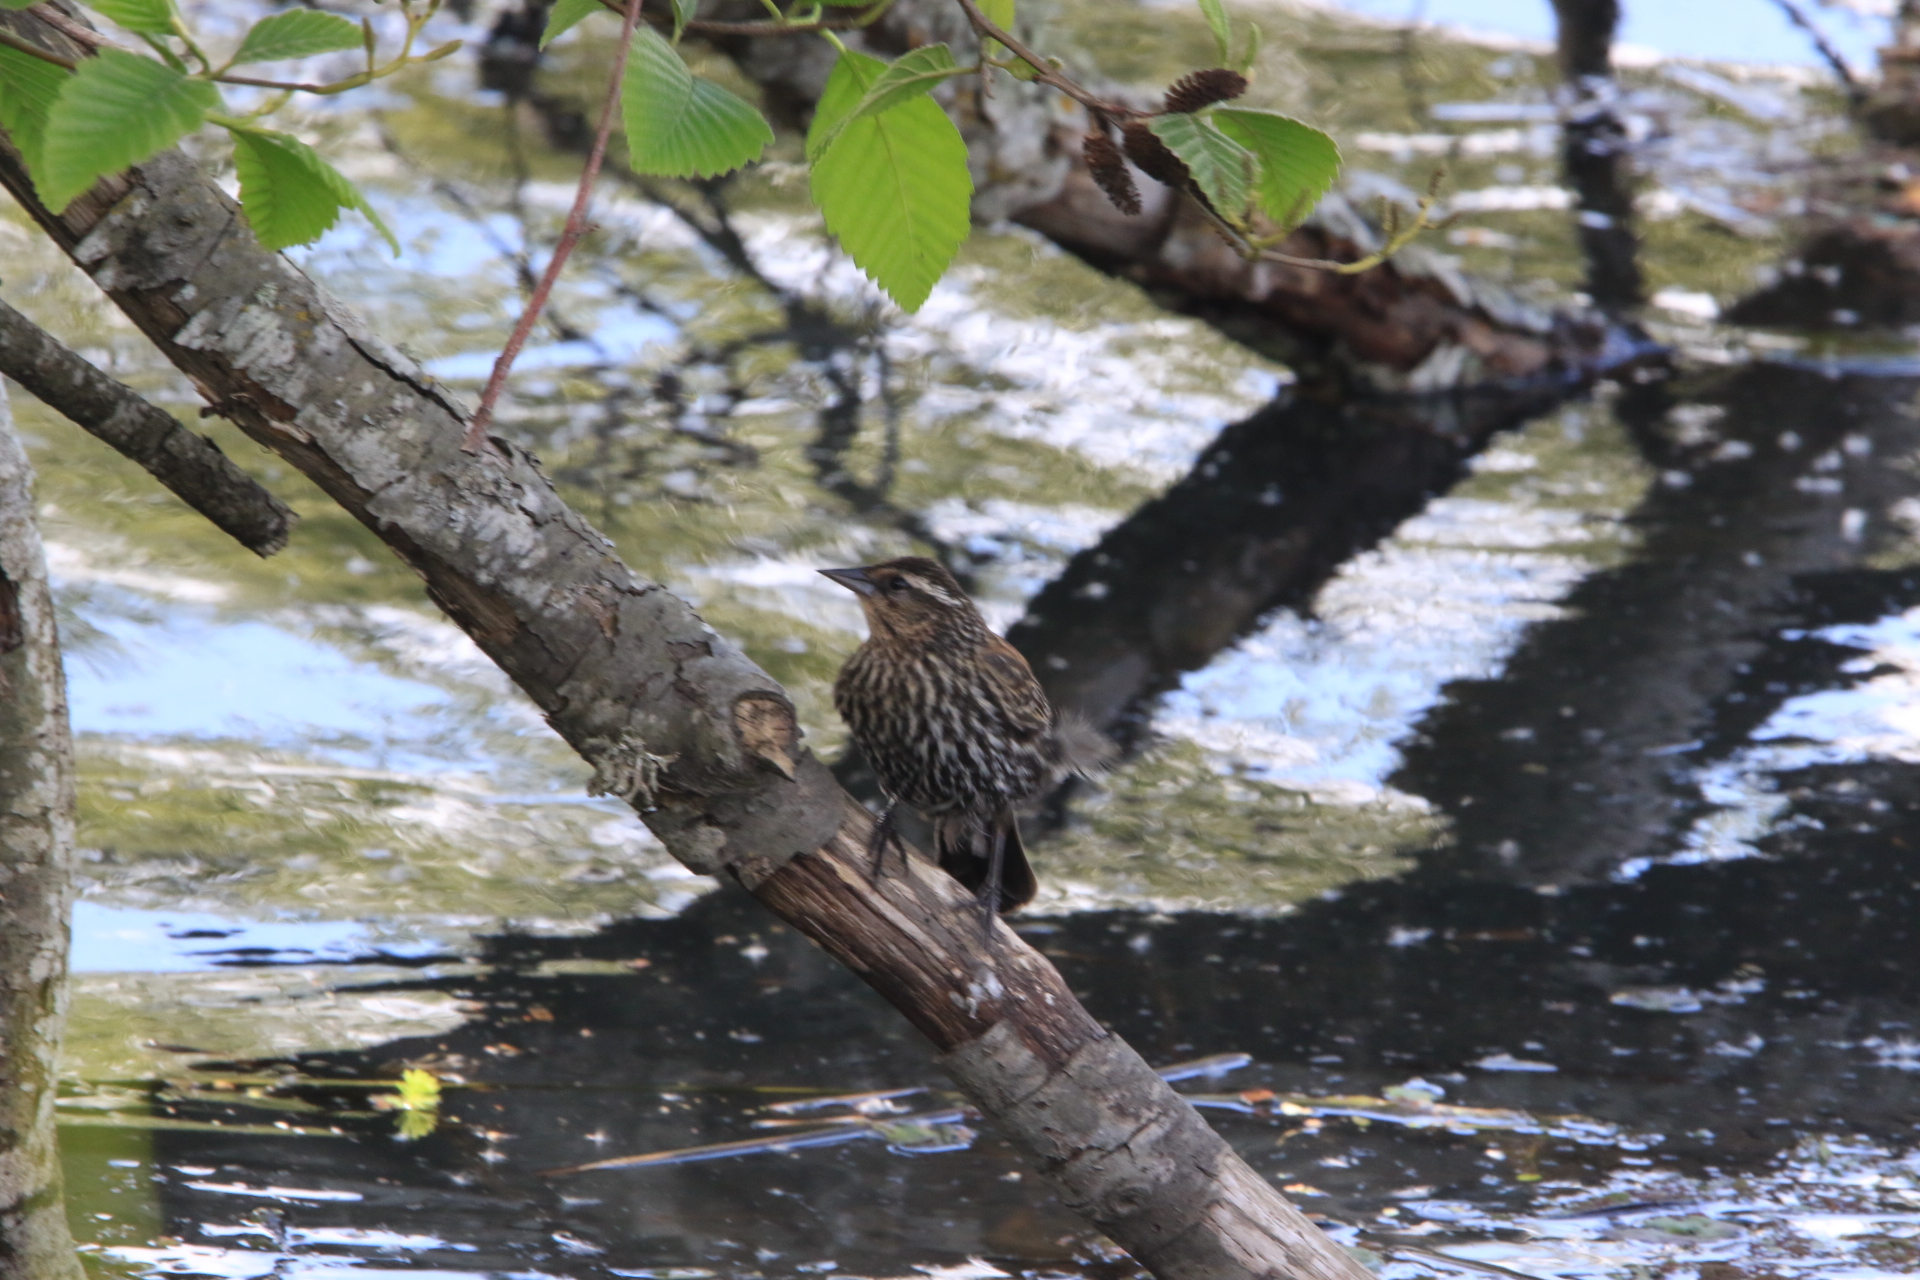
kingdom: Animalia
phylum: Chordata
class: Aves
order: Passeriformes
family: Icteridae
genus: Agelaius
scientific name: Agelaius phoeniceus
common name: Red-winged blackbird
